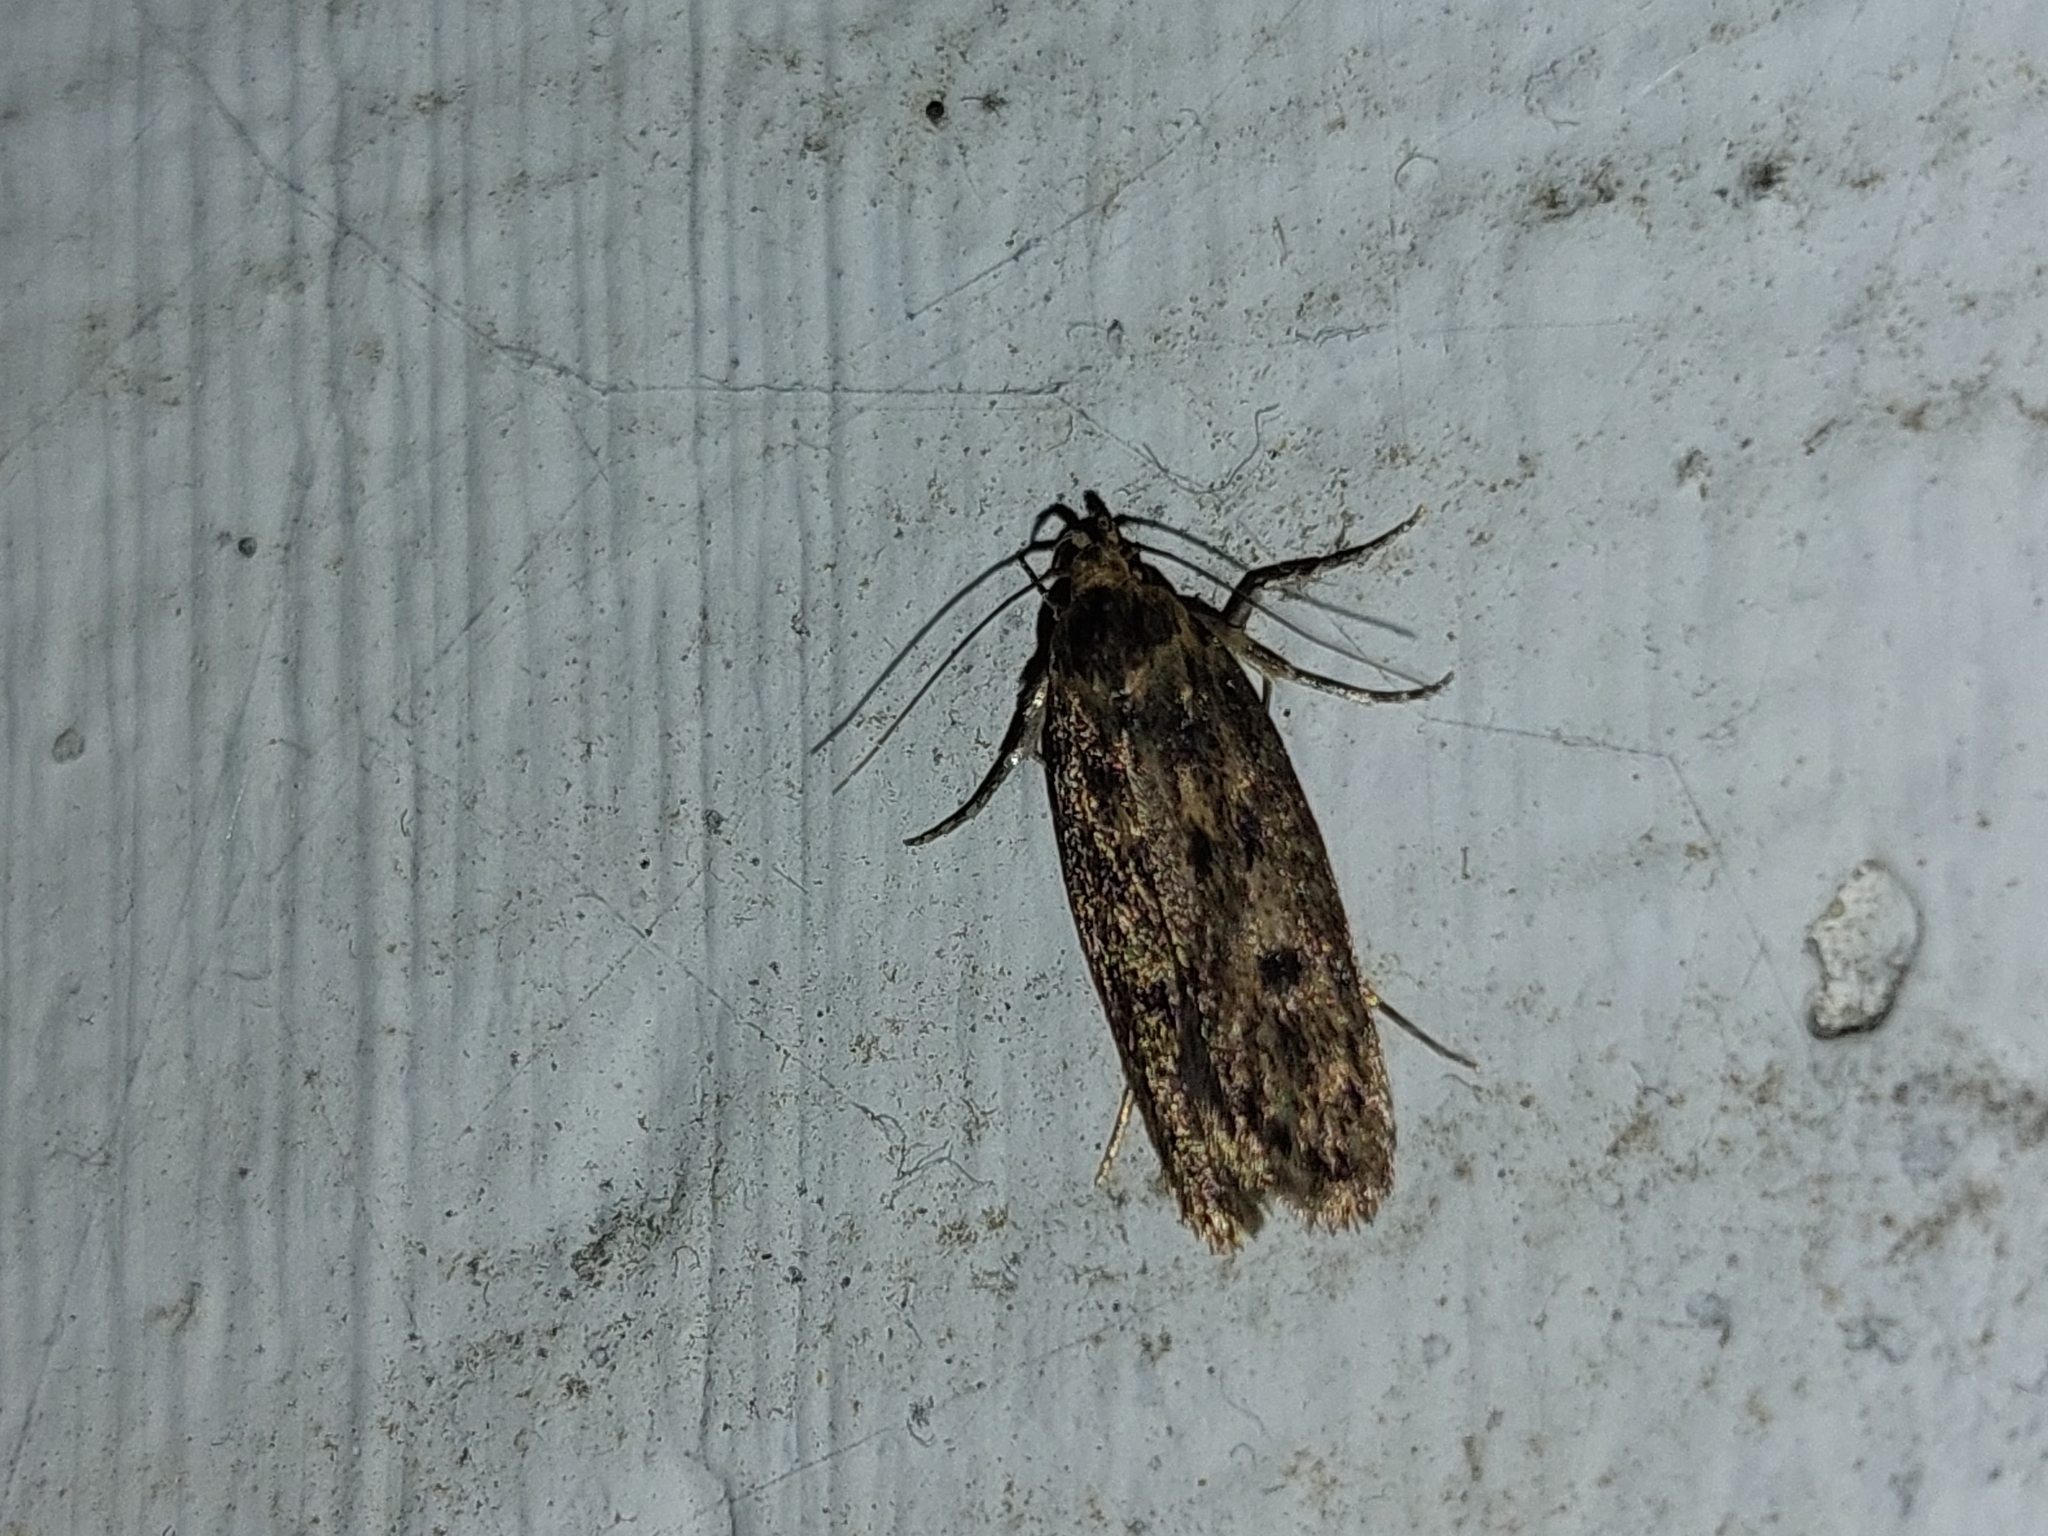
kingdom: Animalia
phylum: Arthropoda
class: Insecta
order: Lepidoptera
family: Oecophoridae
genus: Hofmannophila
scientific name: Hofmannophila pseudospretella
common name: Brown house moth
